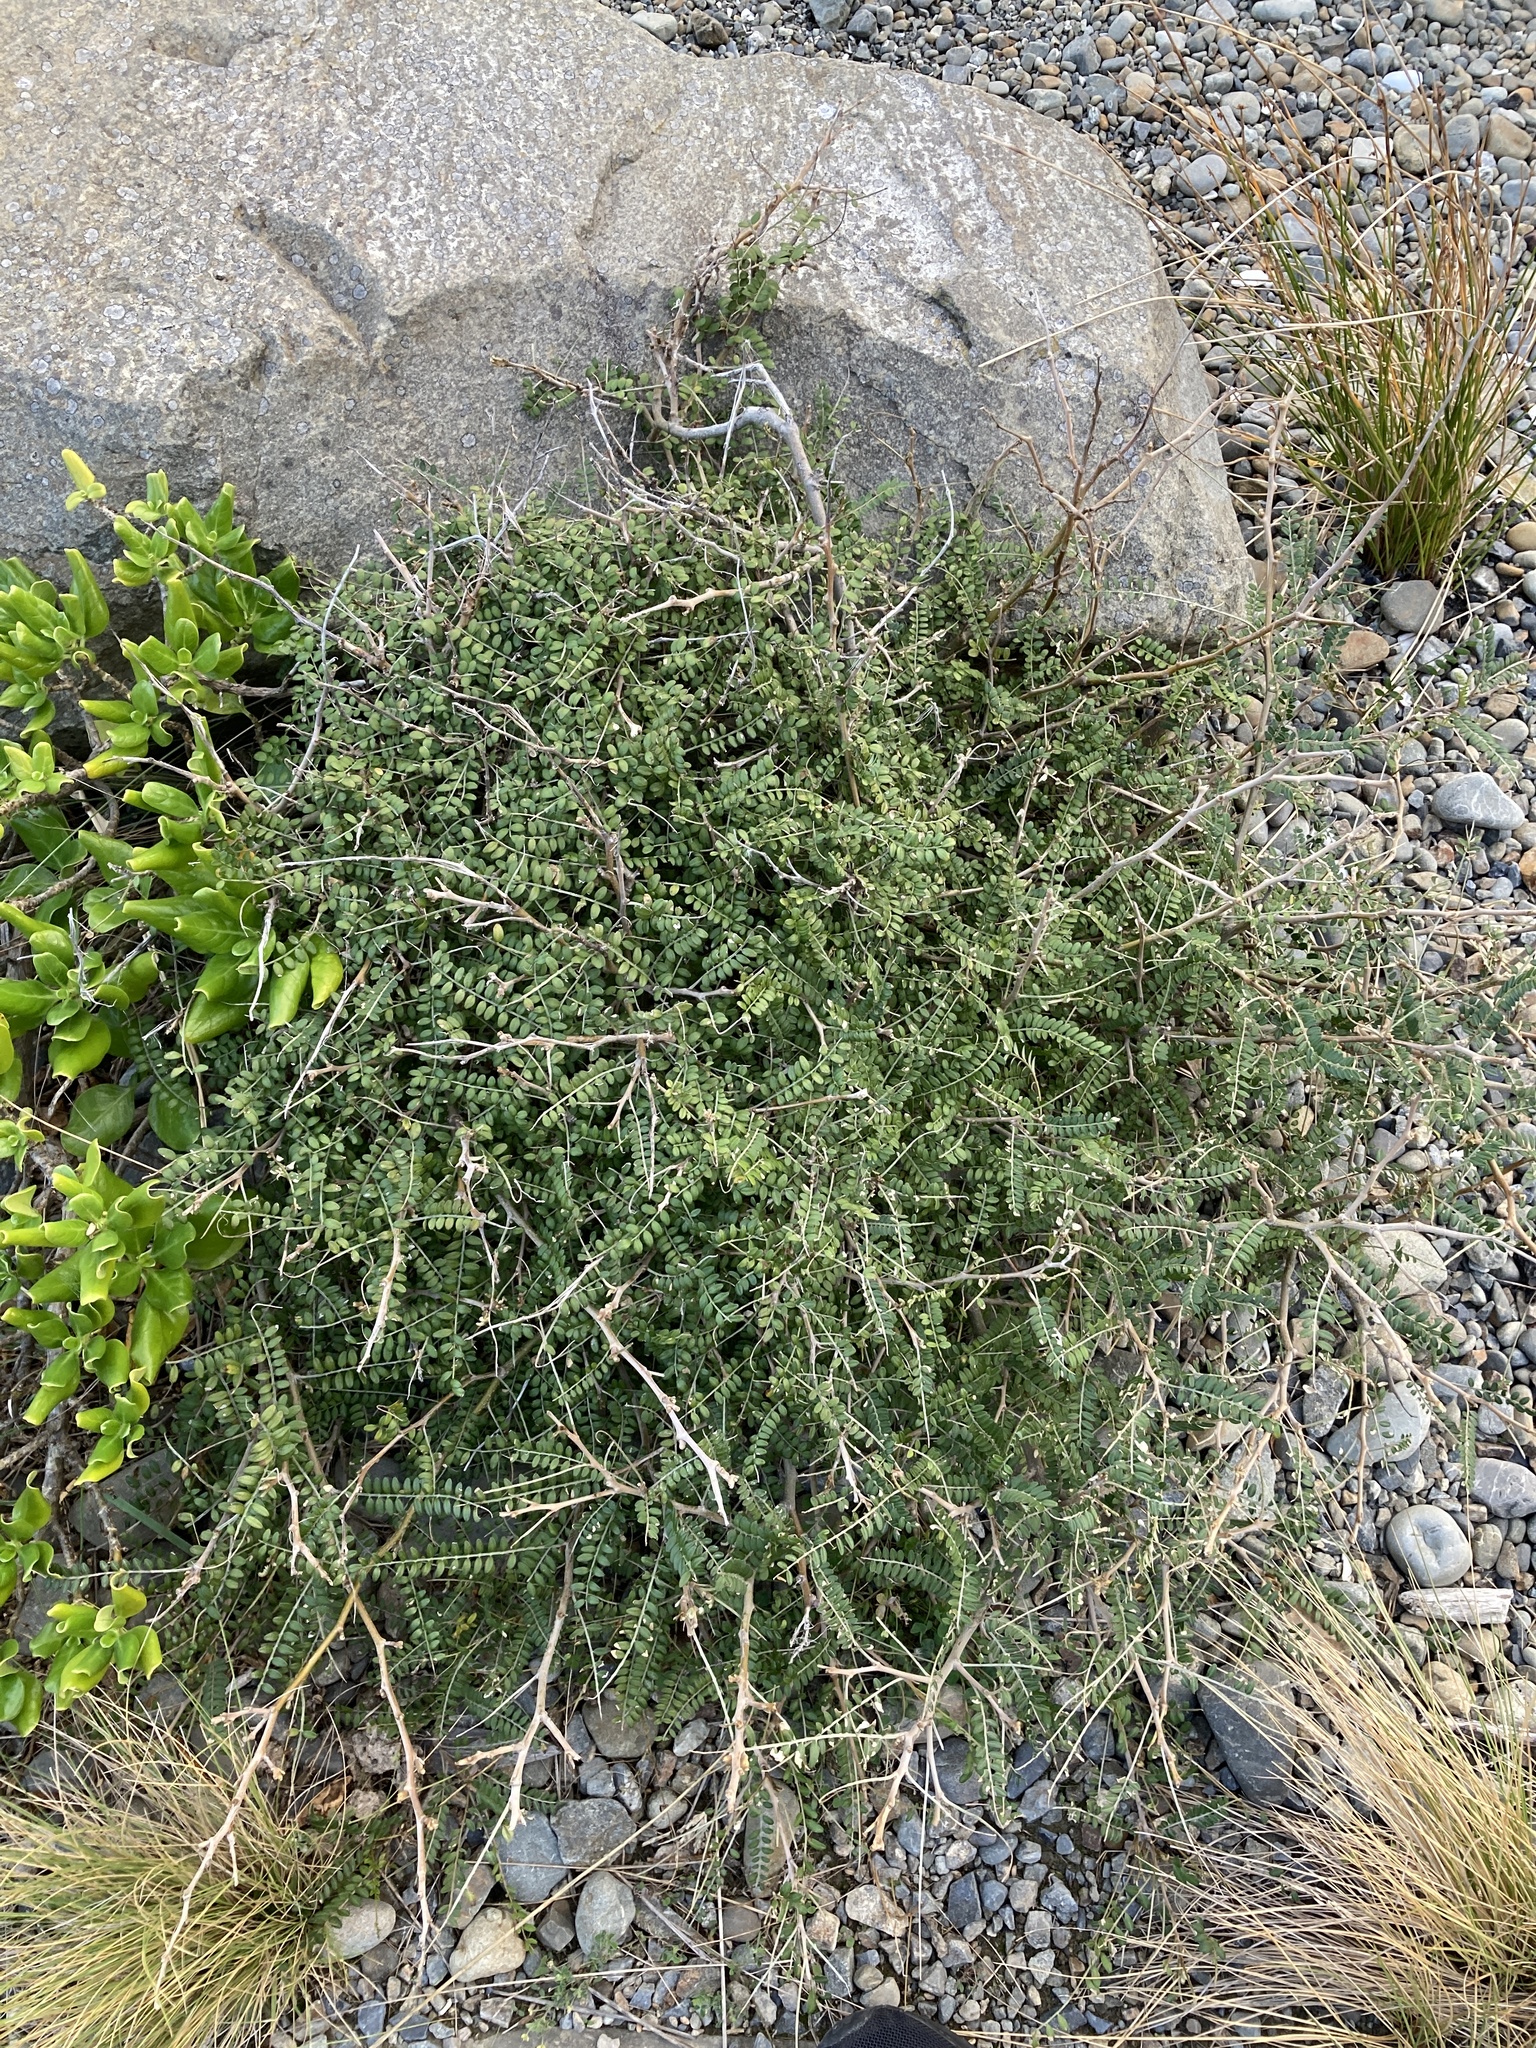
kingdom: Plantae
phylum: Tracheophyta
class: Magnoliopsida
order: Fabales
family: Fabaceae
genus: Sophora
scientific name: Sophora molloyi
